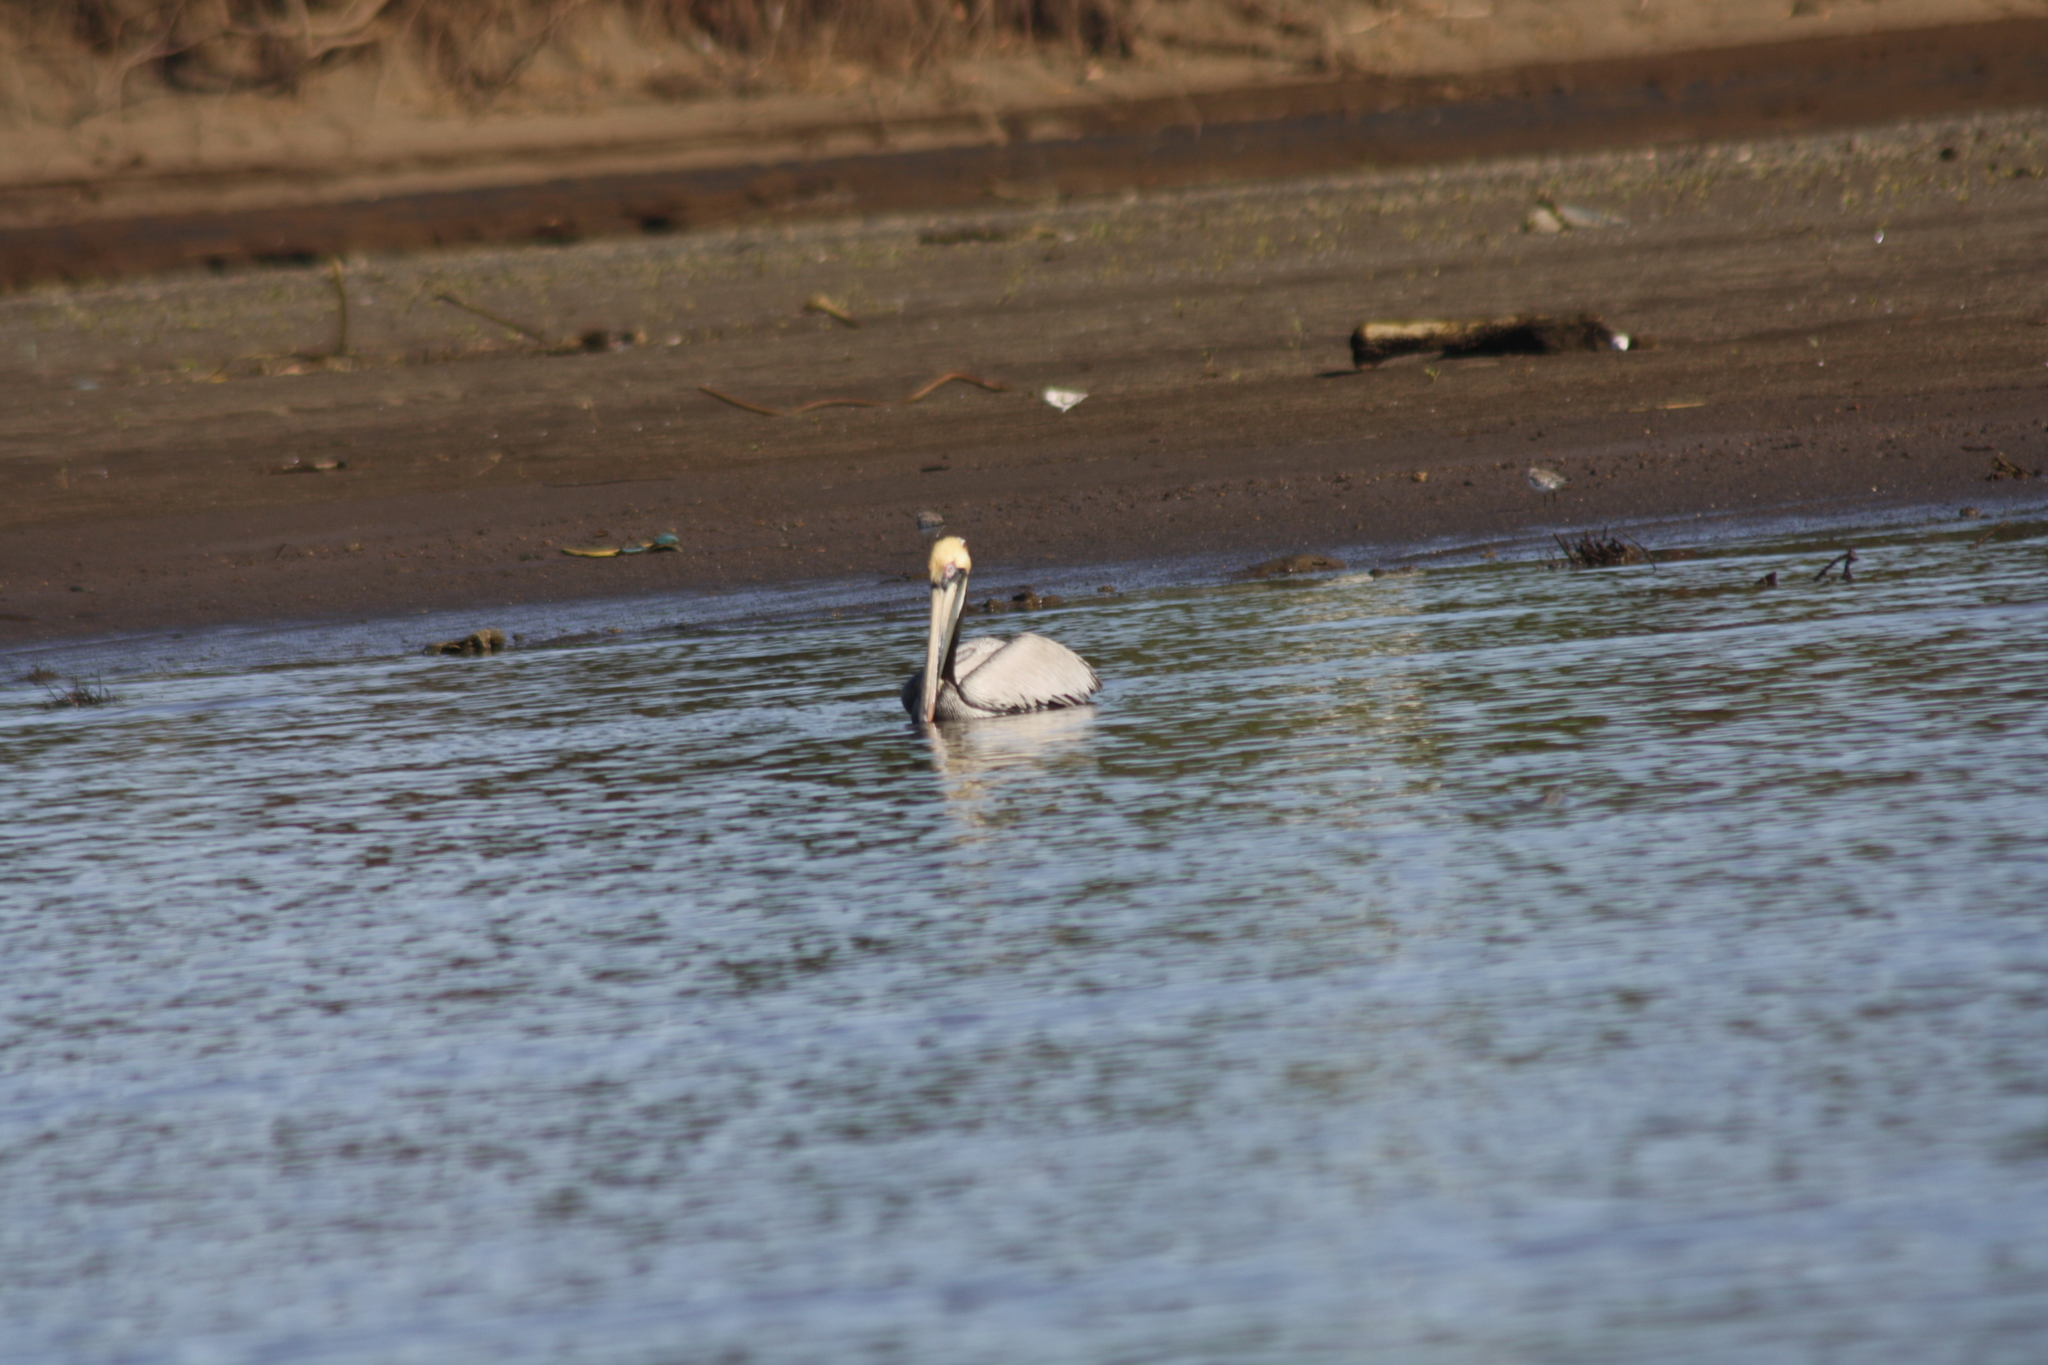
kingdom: Animalia
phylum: Chordata
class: Aves
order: Pelecaniformes
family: Pelecanidae
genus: Pelecanus
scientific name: Pelecanus occidentalis
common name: Brown pelican
